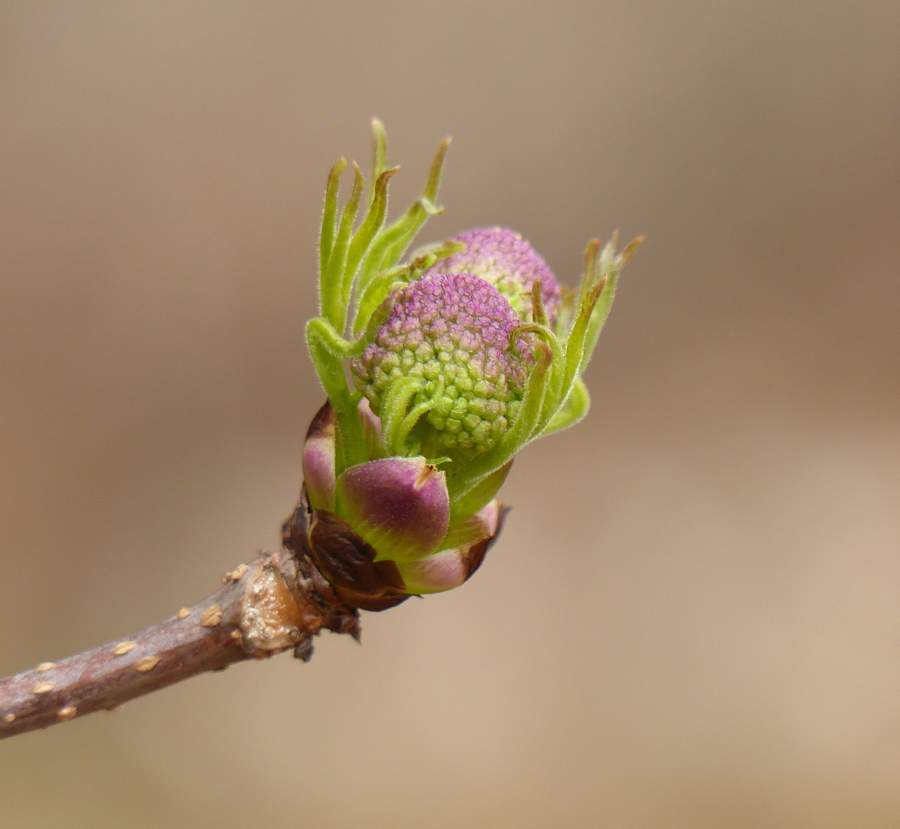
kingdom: Plantae
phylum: Tracheophyta
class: Magnoliopsida
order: Dipsacales
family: Viburnaceae
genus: Sambucus
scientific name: Sambucus racemosa
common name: Red-berried elder
